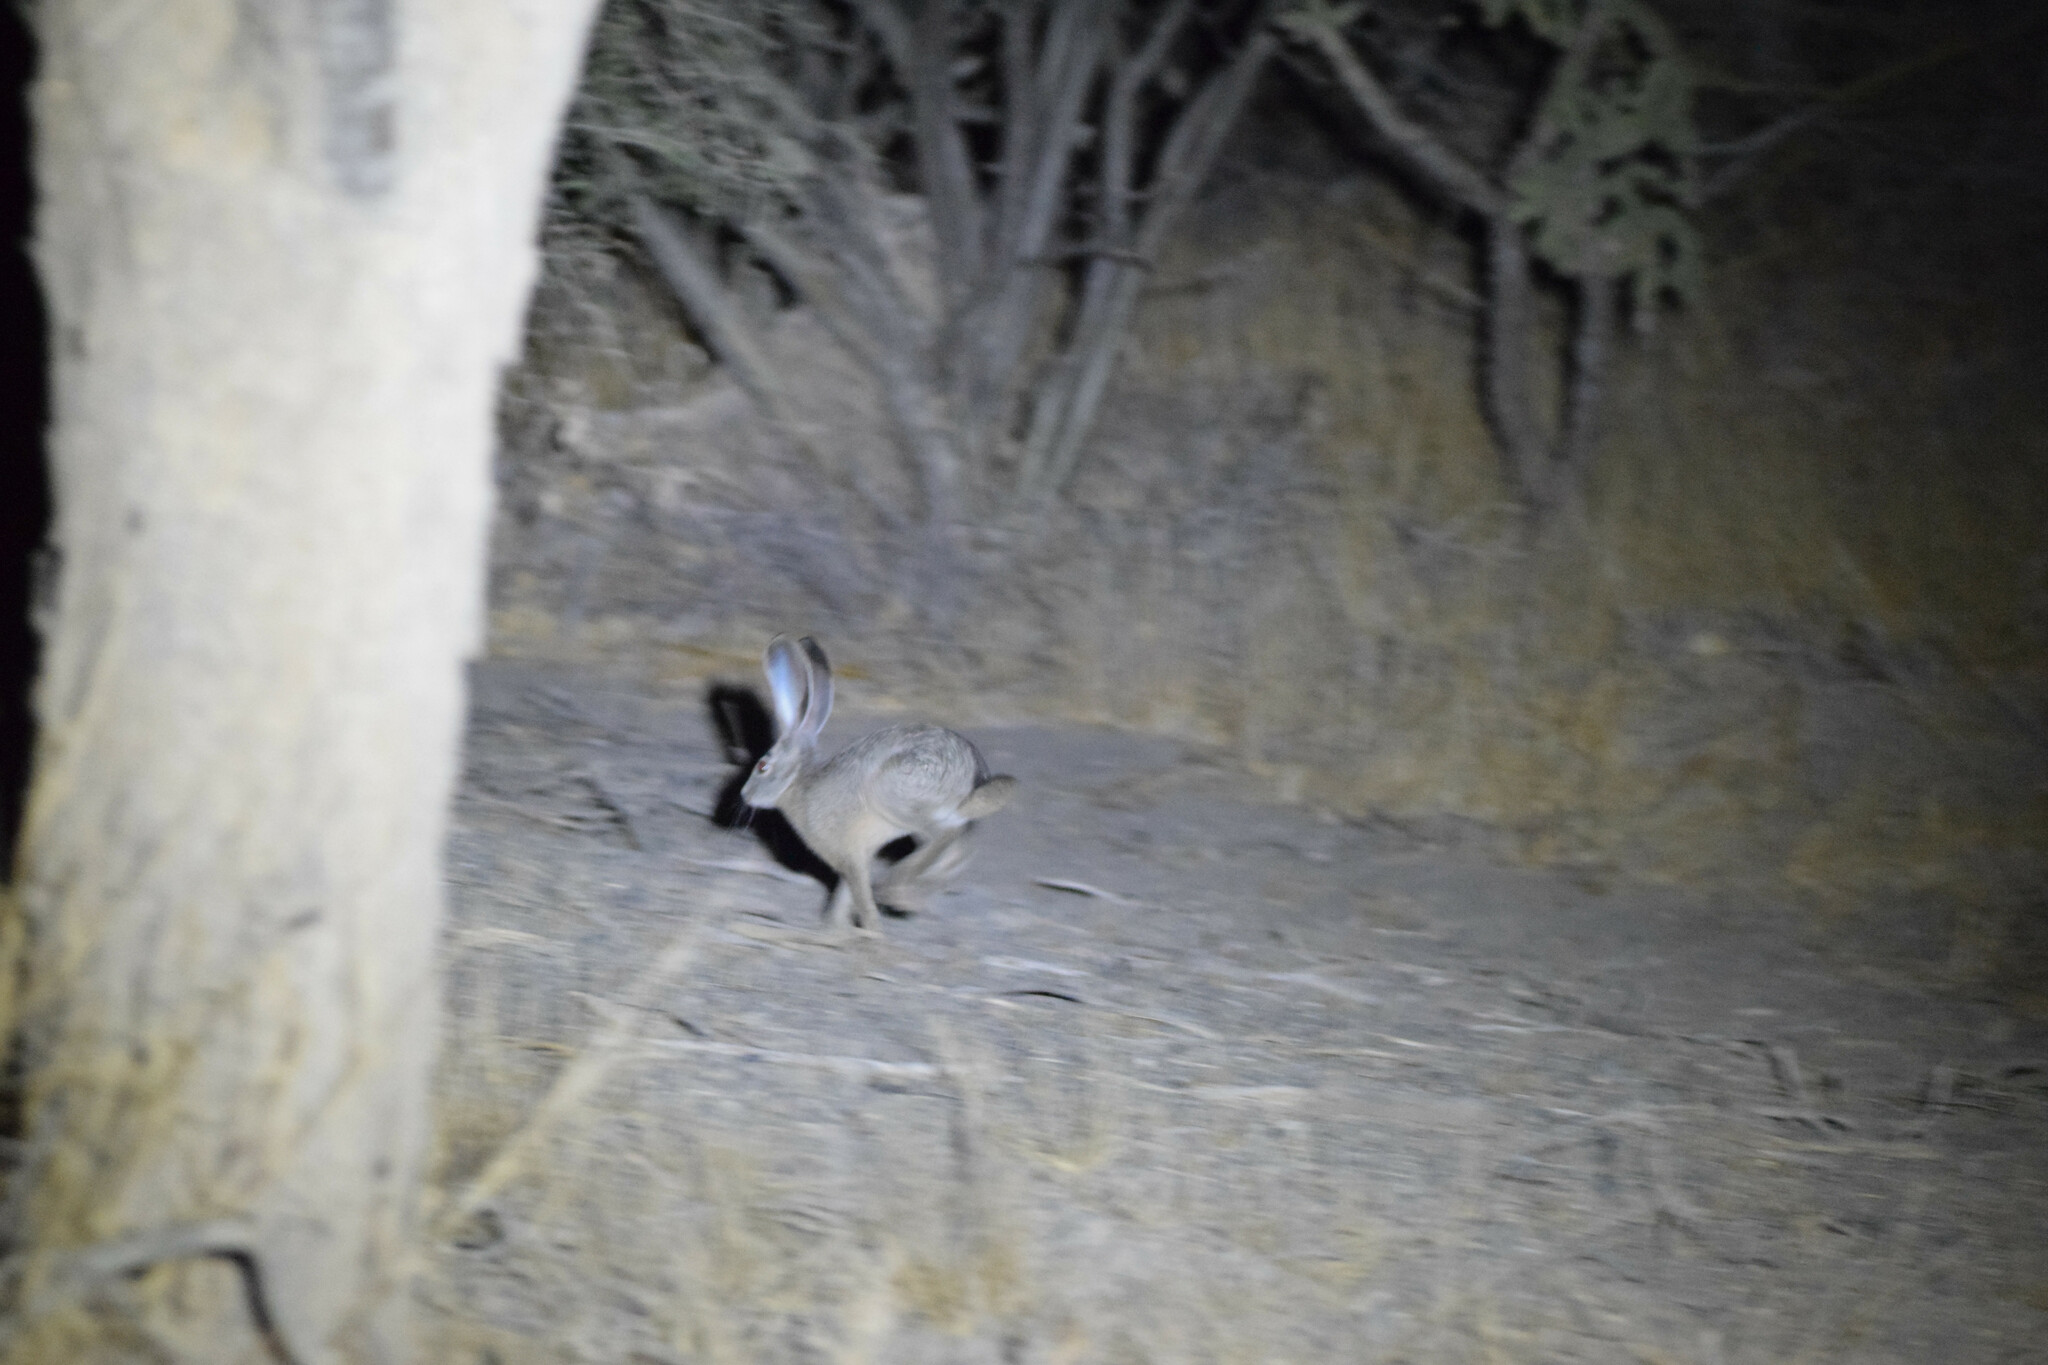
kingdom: Animalia
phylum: Chordata
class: Mammalia
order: Lagomorpha
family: Leporidae
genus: Lepus
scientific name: Lepus californicus
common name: Black-tailed jackrabbit
